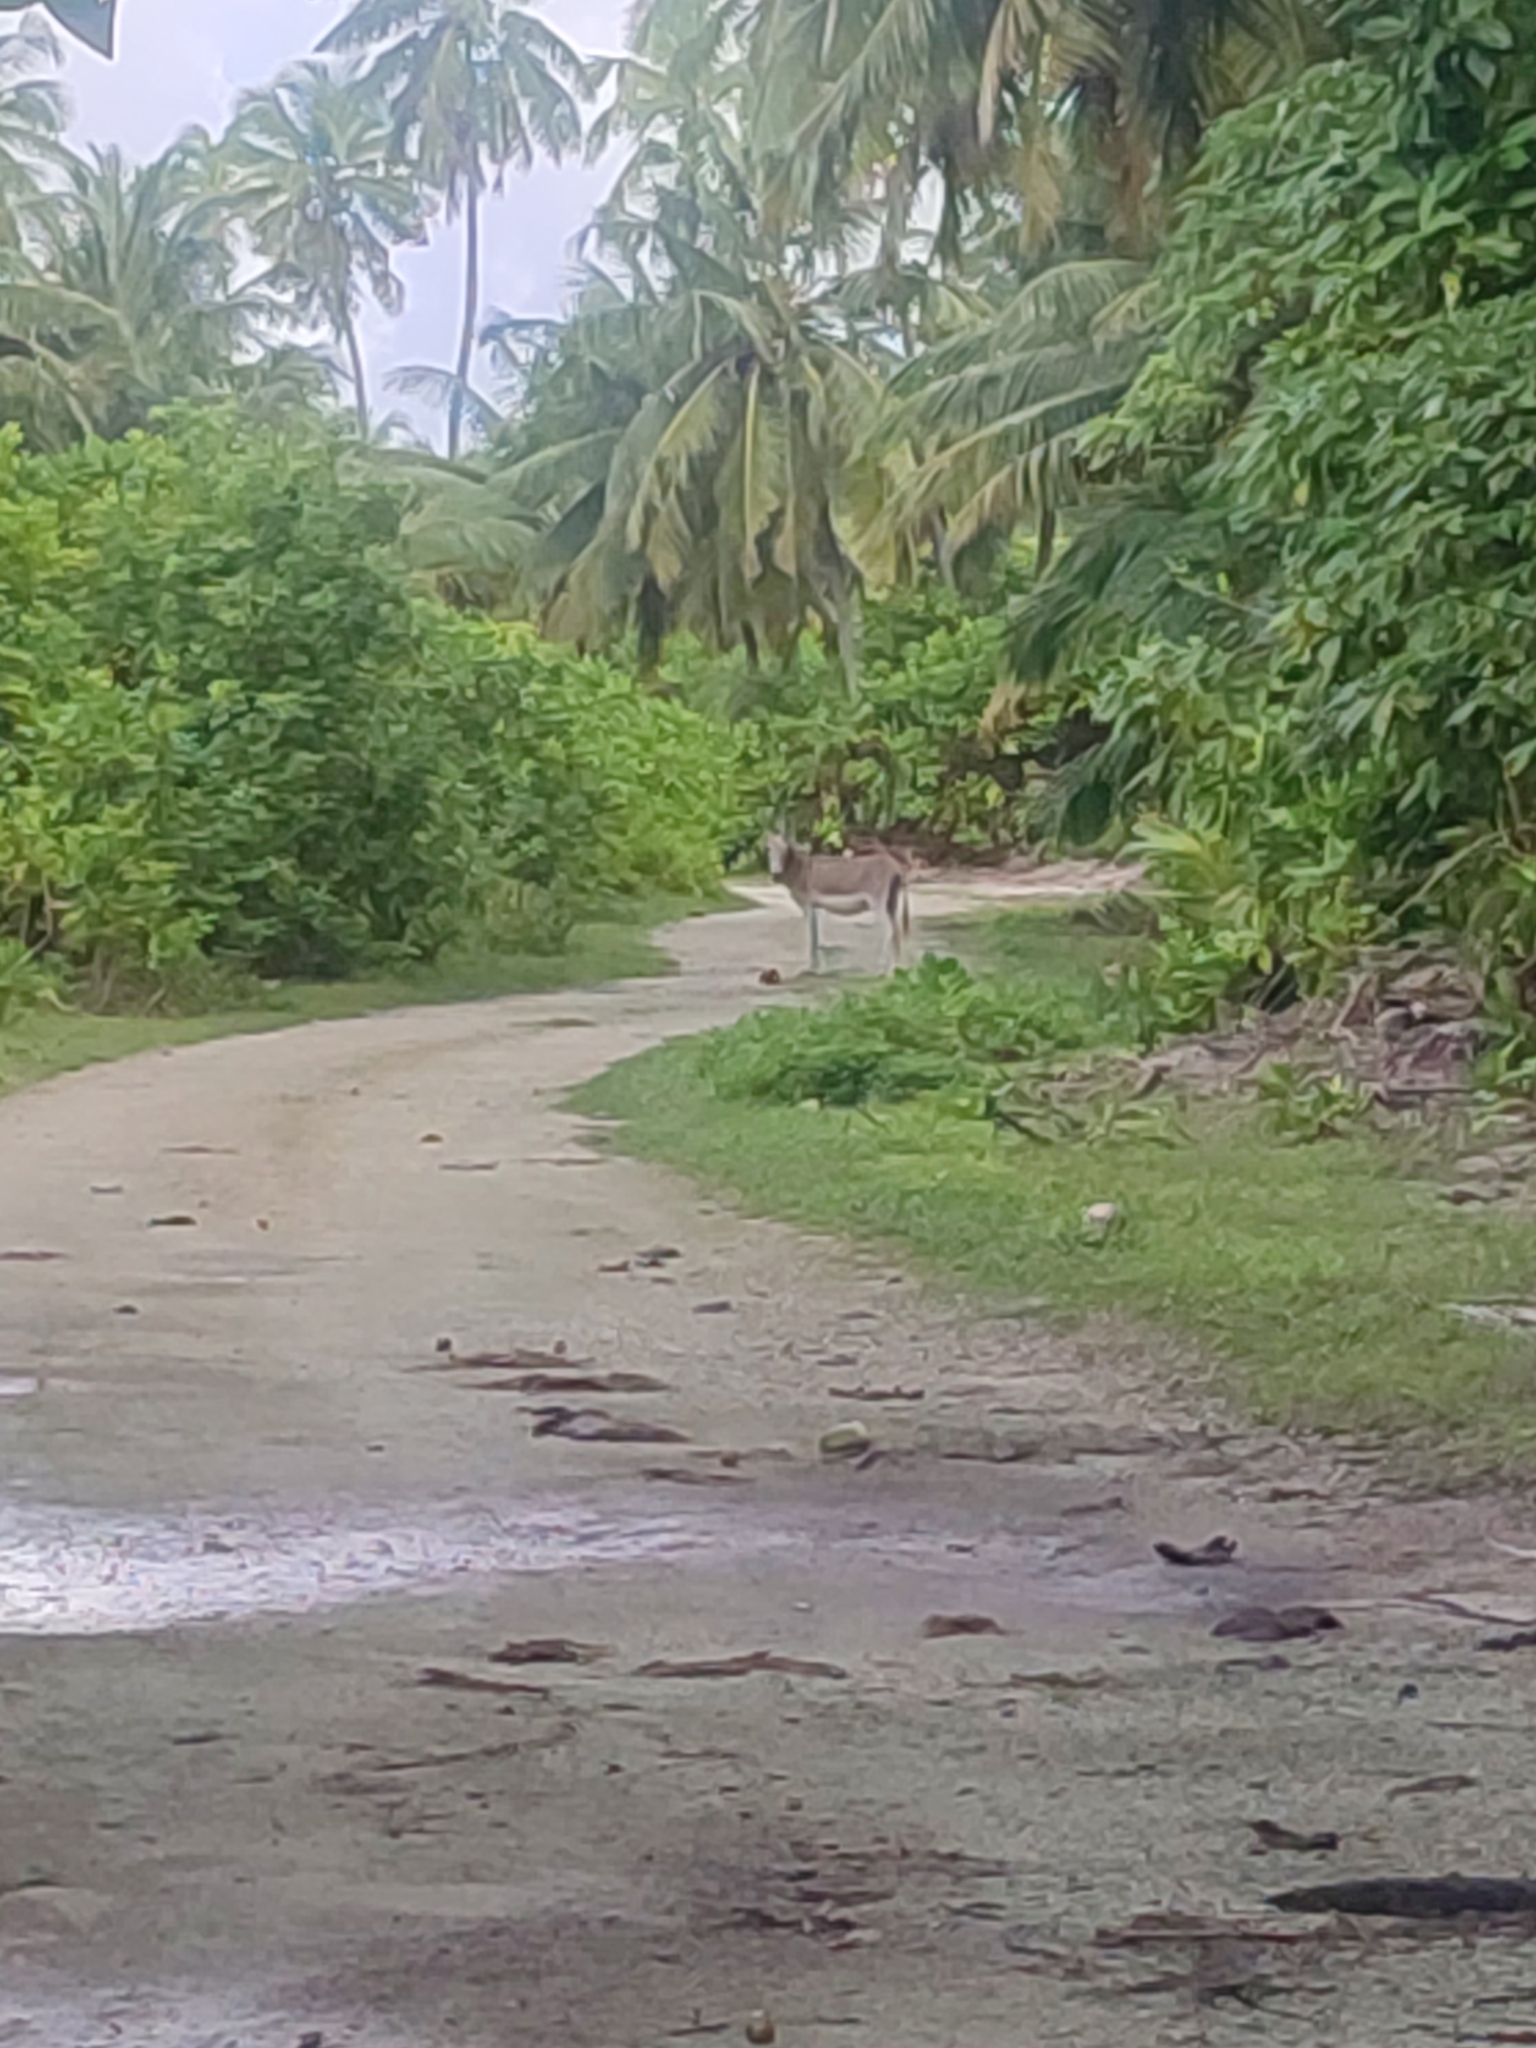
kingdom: Animalia
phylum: Chordata
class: Mammalia
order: Perissodactyla
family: Equidae
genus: Equus
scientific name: Equus asinus
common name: Ass
